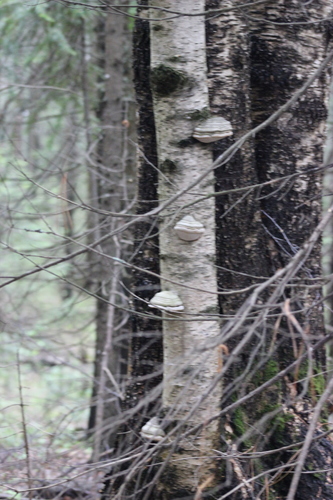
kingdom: Fungi
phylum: Basidiomycota
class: Agaricomycetes
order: Polyporales
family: Polyporaceae
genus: Fomes
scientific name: Fomes fomentarius
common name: Hoof fungus
